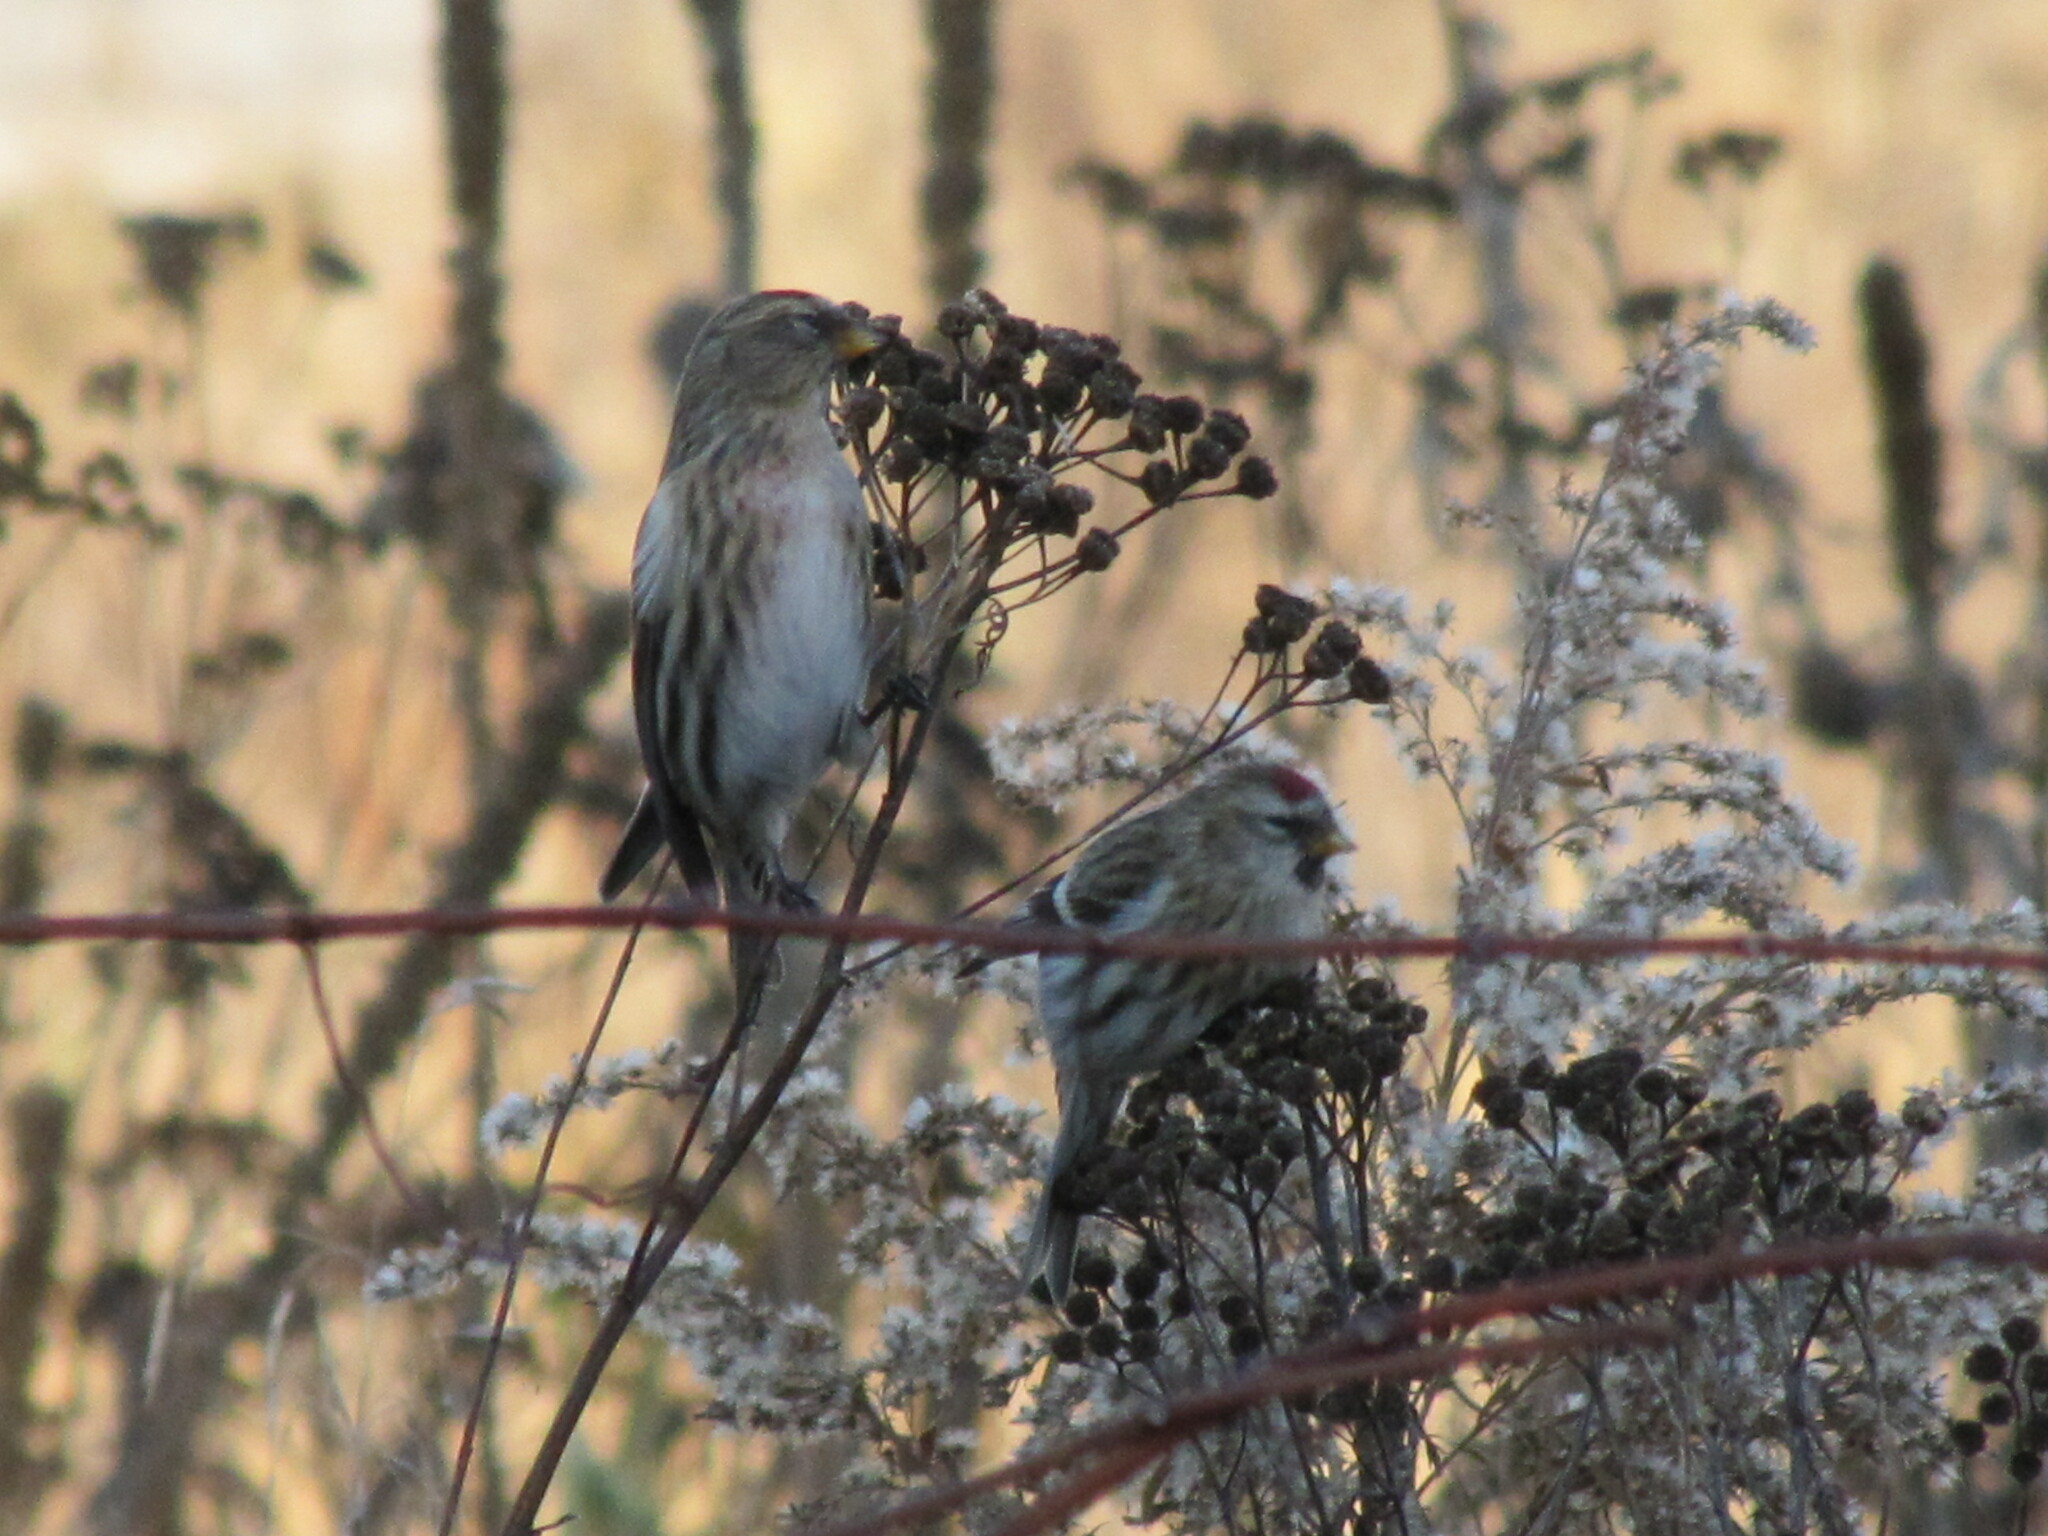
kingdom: Animalia
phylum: Chordata
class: Aves
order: Passeriformes
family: Fringillidae
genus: Acanthis
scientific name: Acanthis flammea
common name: Common redpoll
